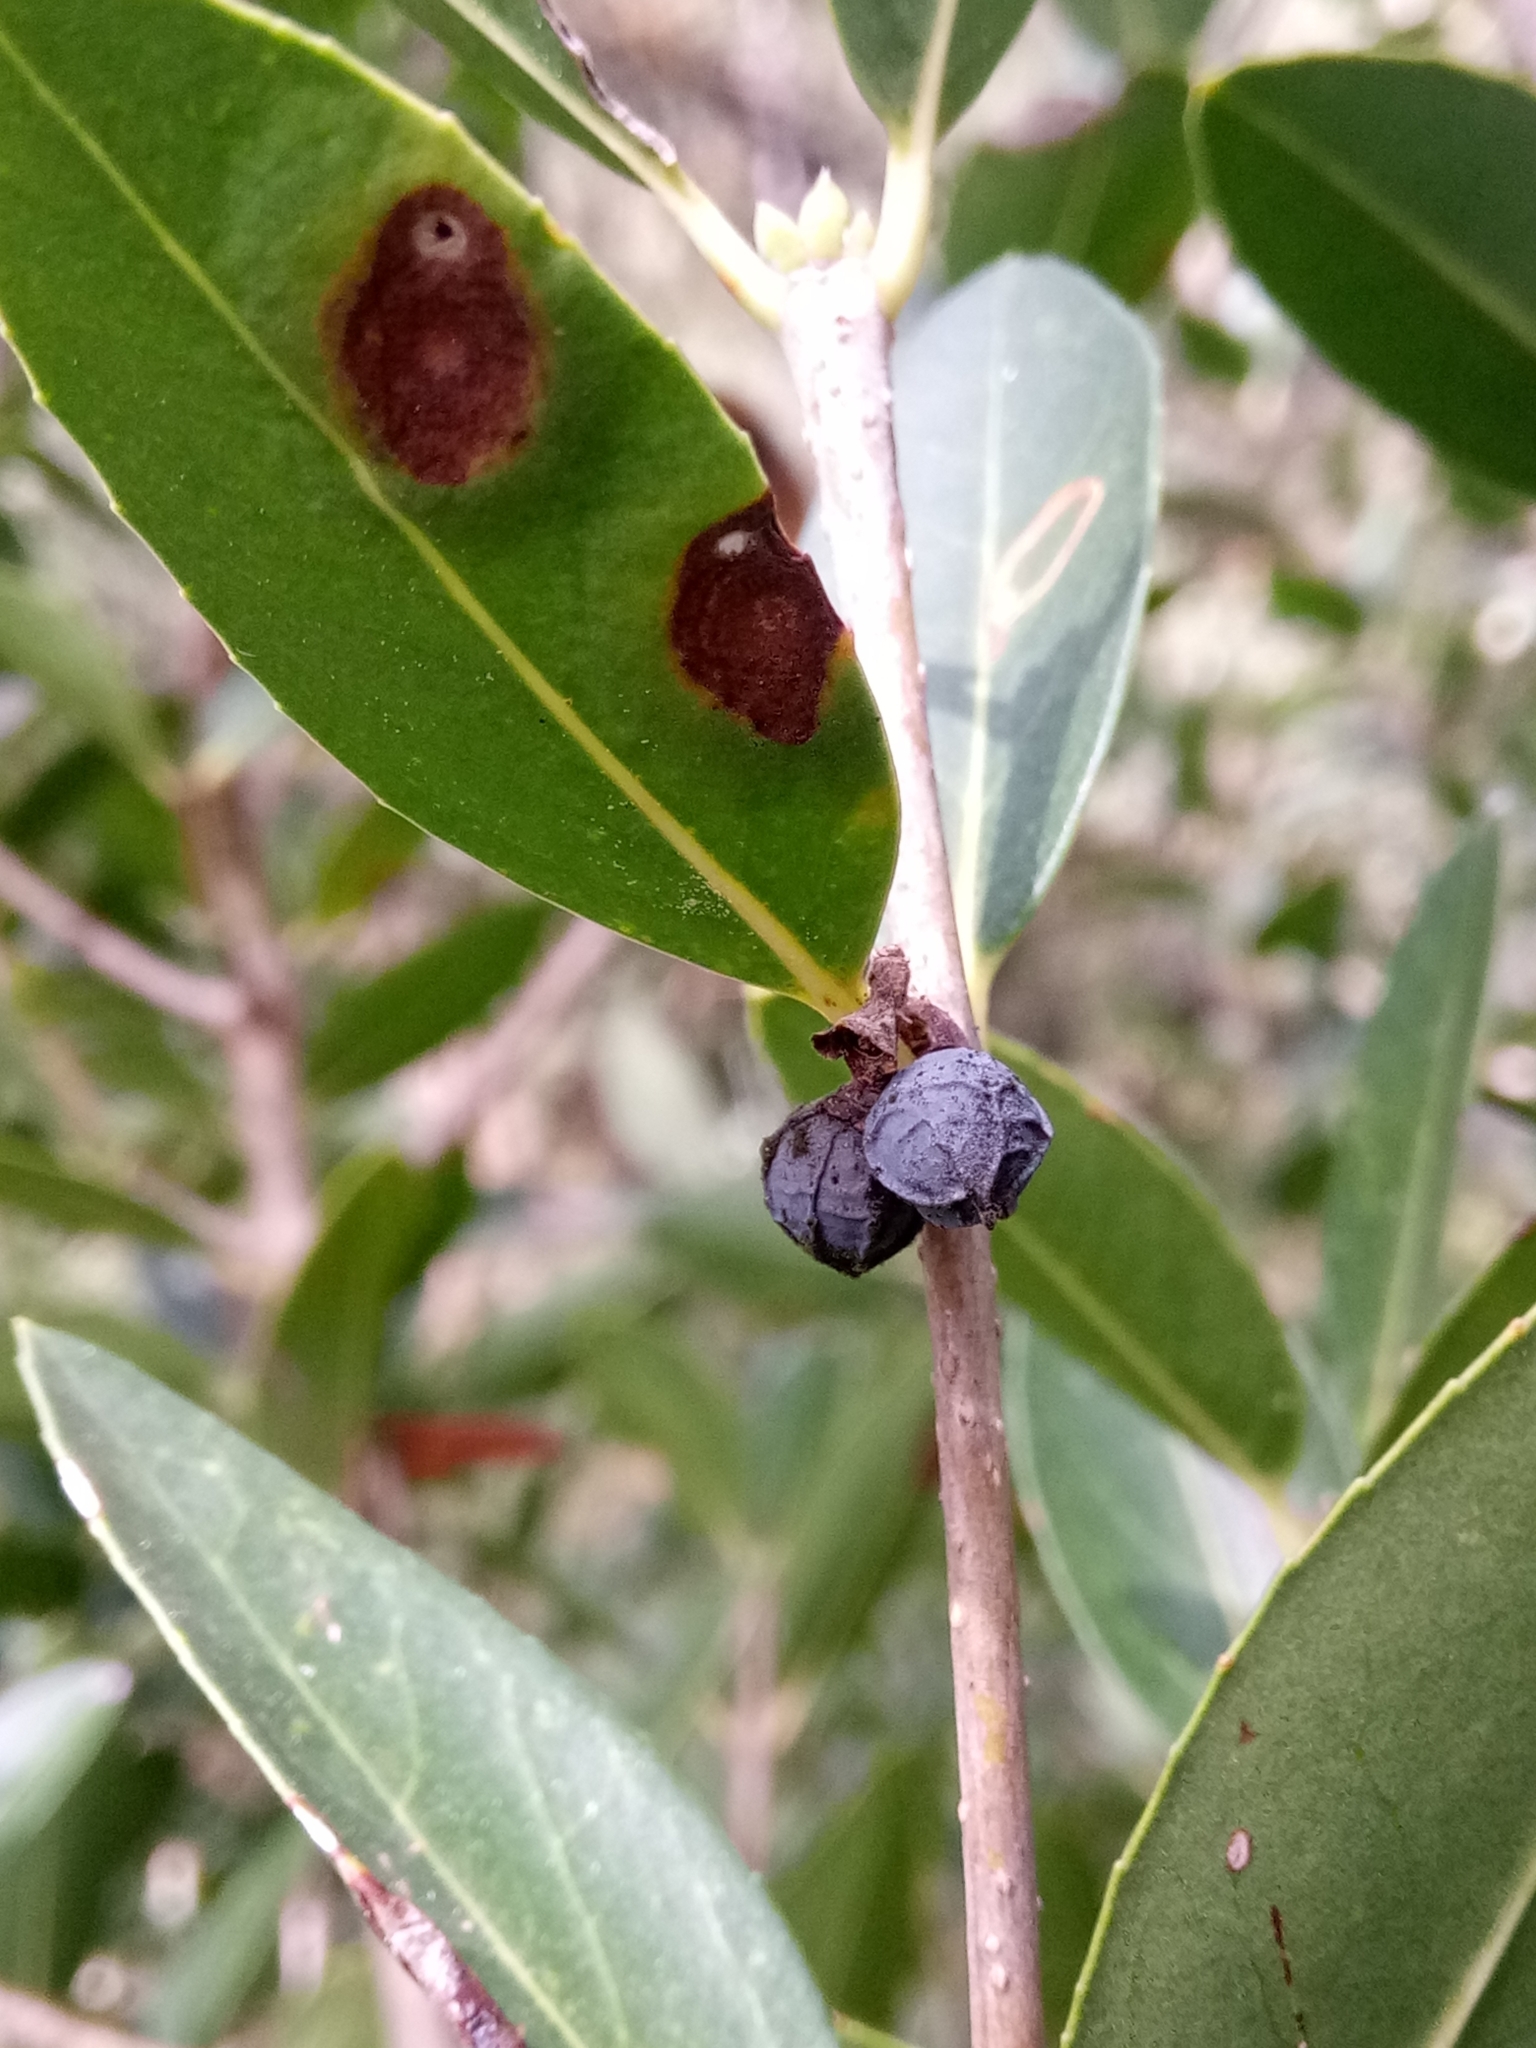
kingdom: Plantae
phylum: Tracheophyta
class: Magnoliopsida
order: Lamiales
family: Oleaceae
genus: Phillyrea
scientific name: Phillyrea latifolia
